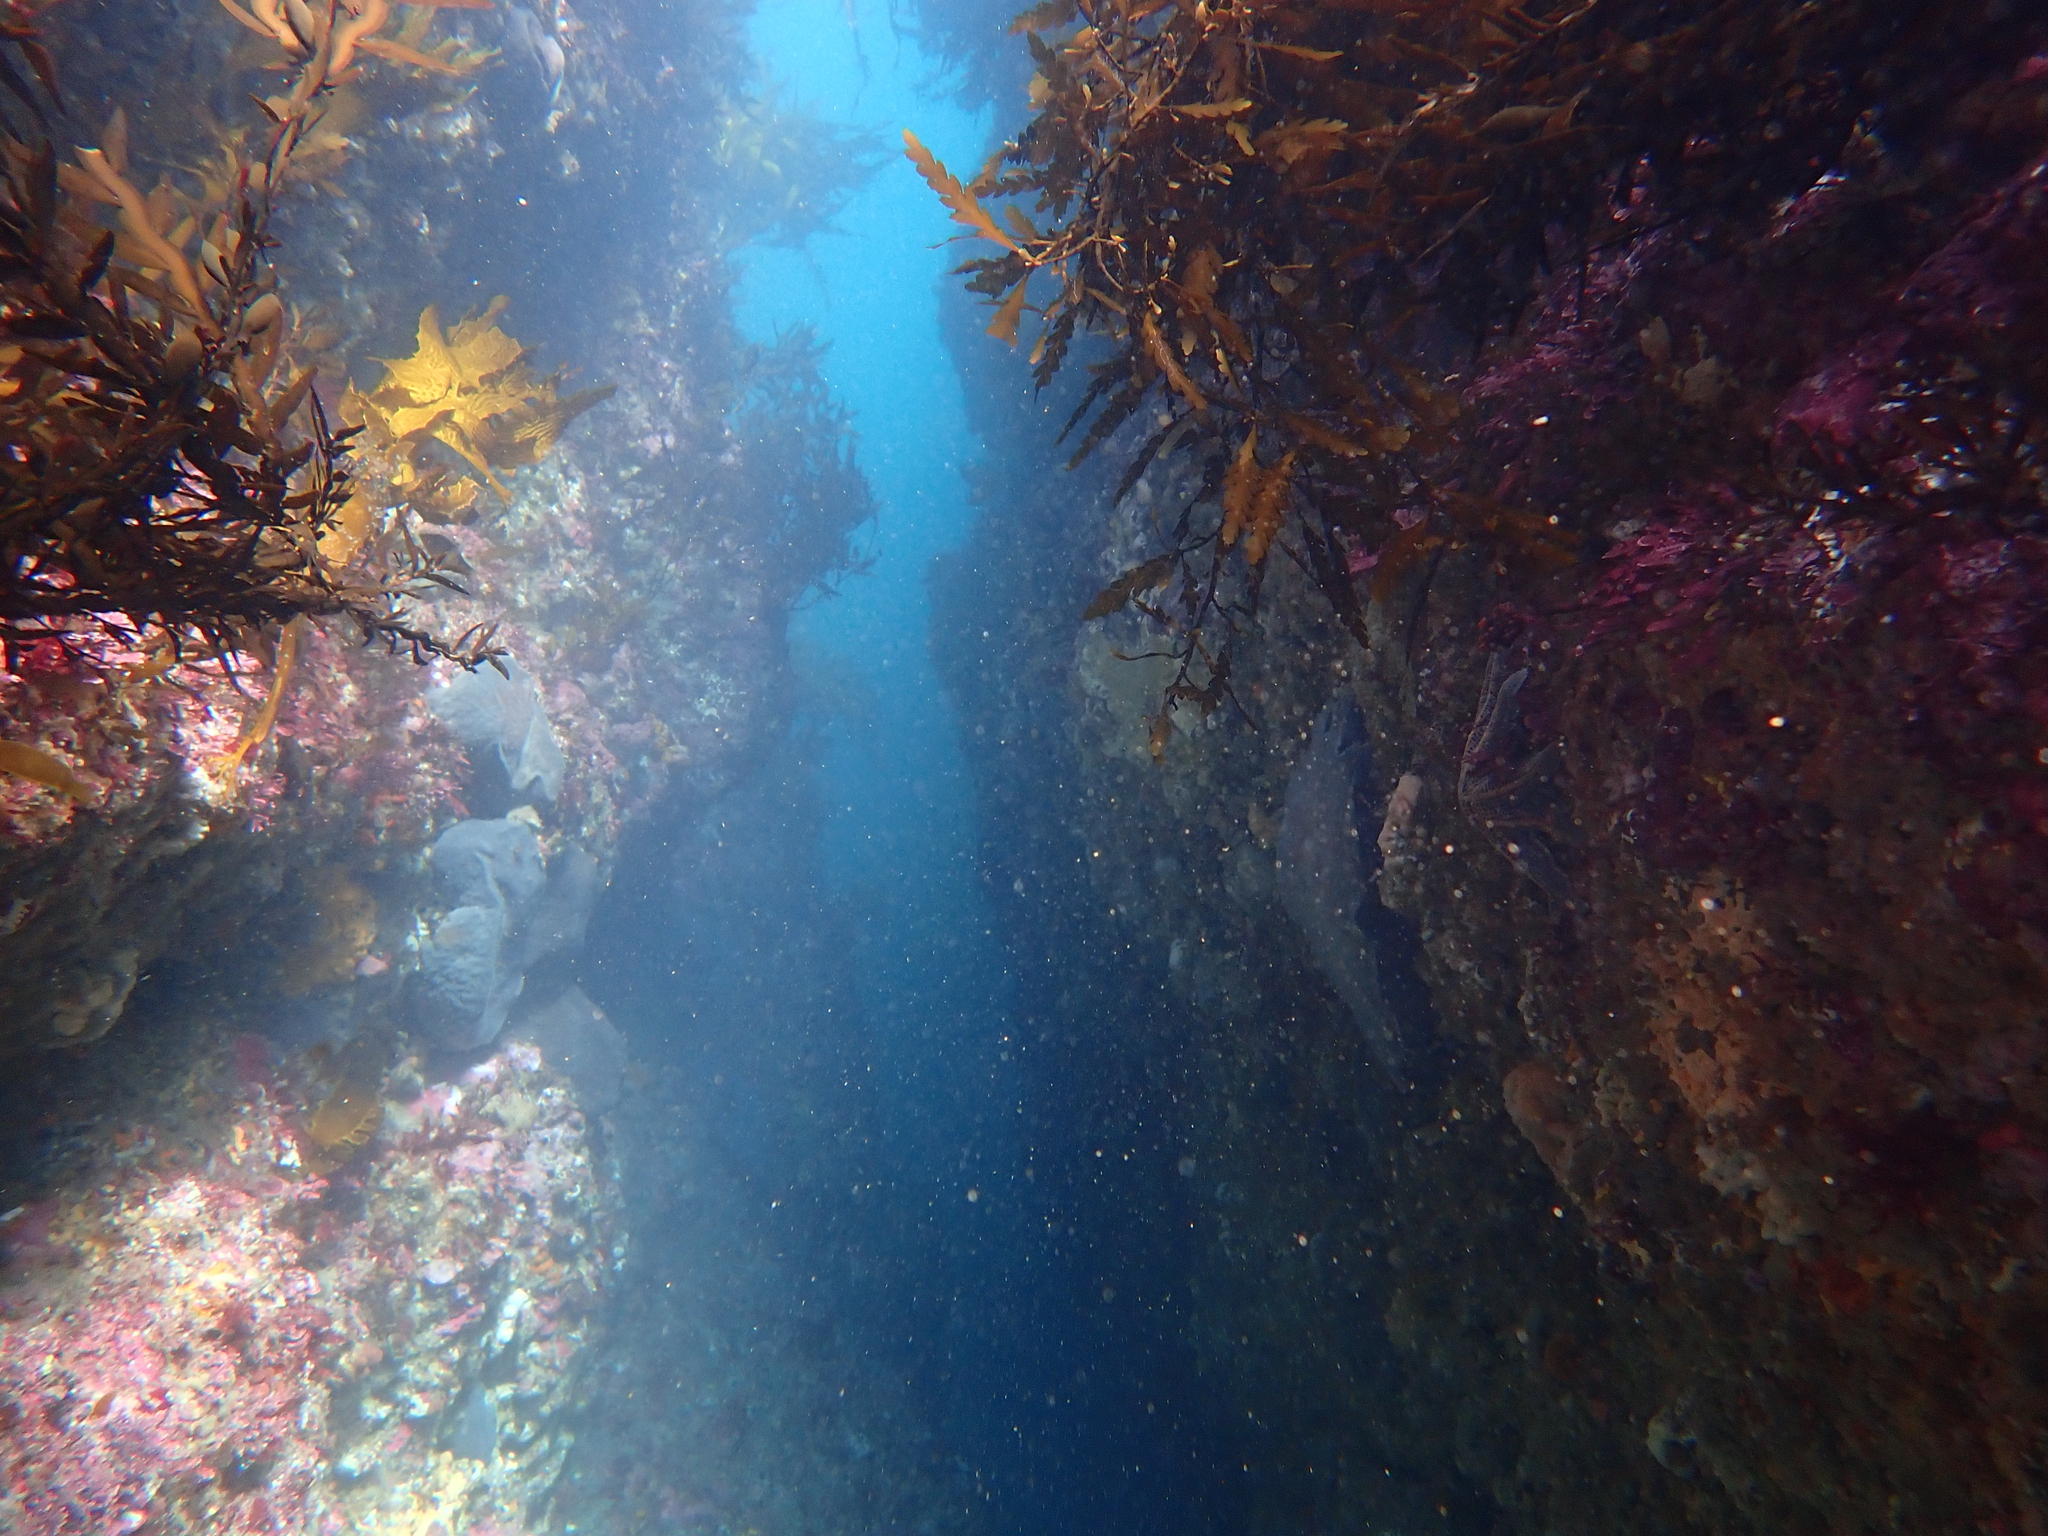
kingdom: Animalia
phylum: Mollusca
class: Gastropoda
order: Nudibranchia
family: Dorididae
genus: Aphelodoris
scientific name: Aphelodoris luctuosa
